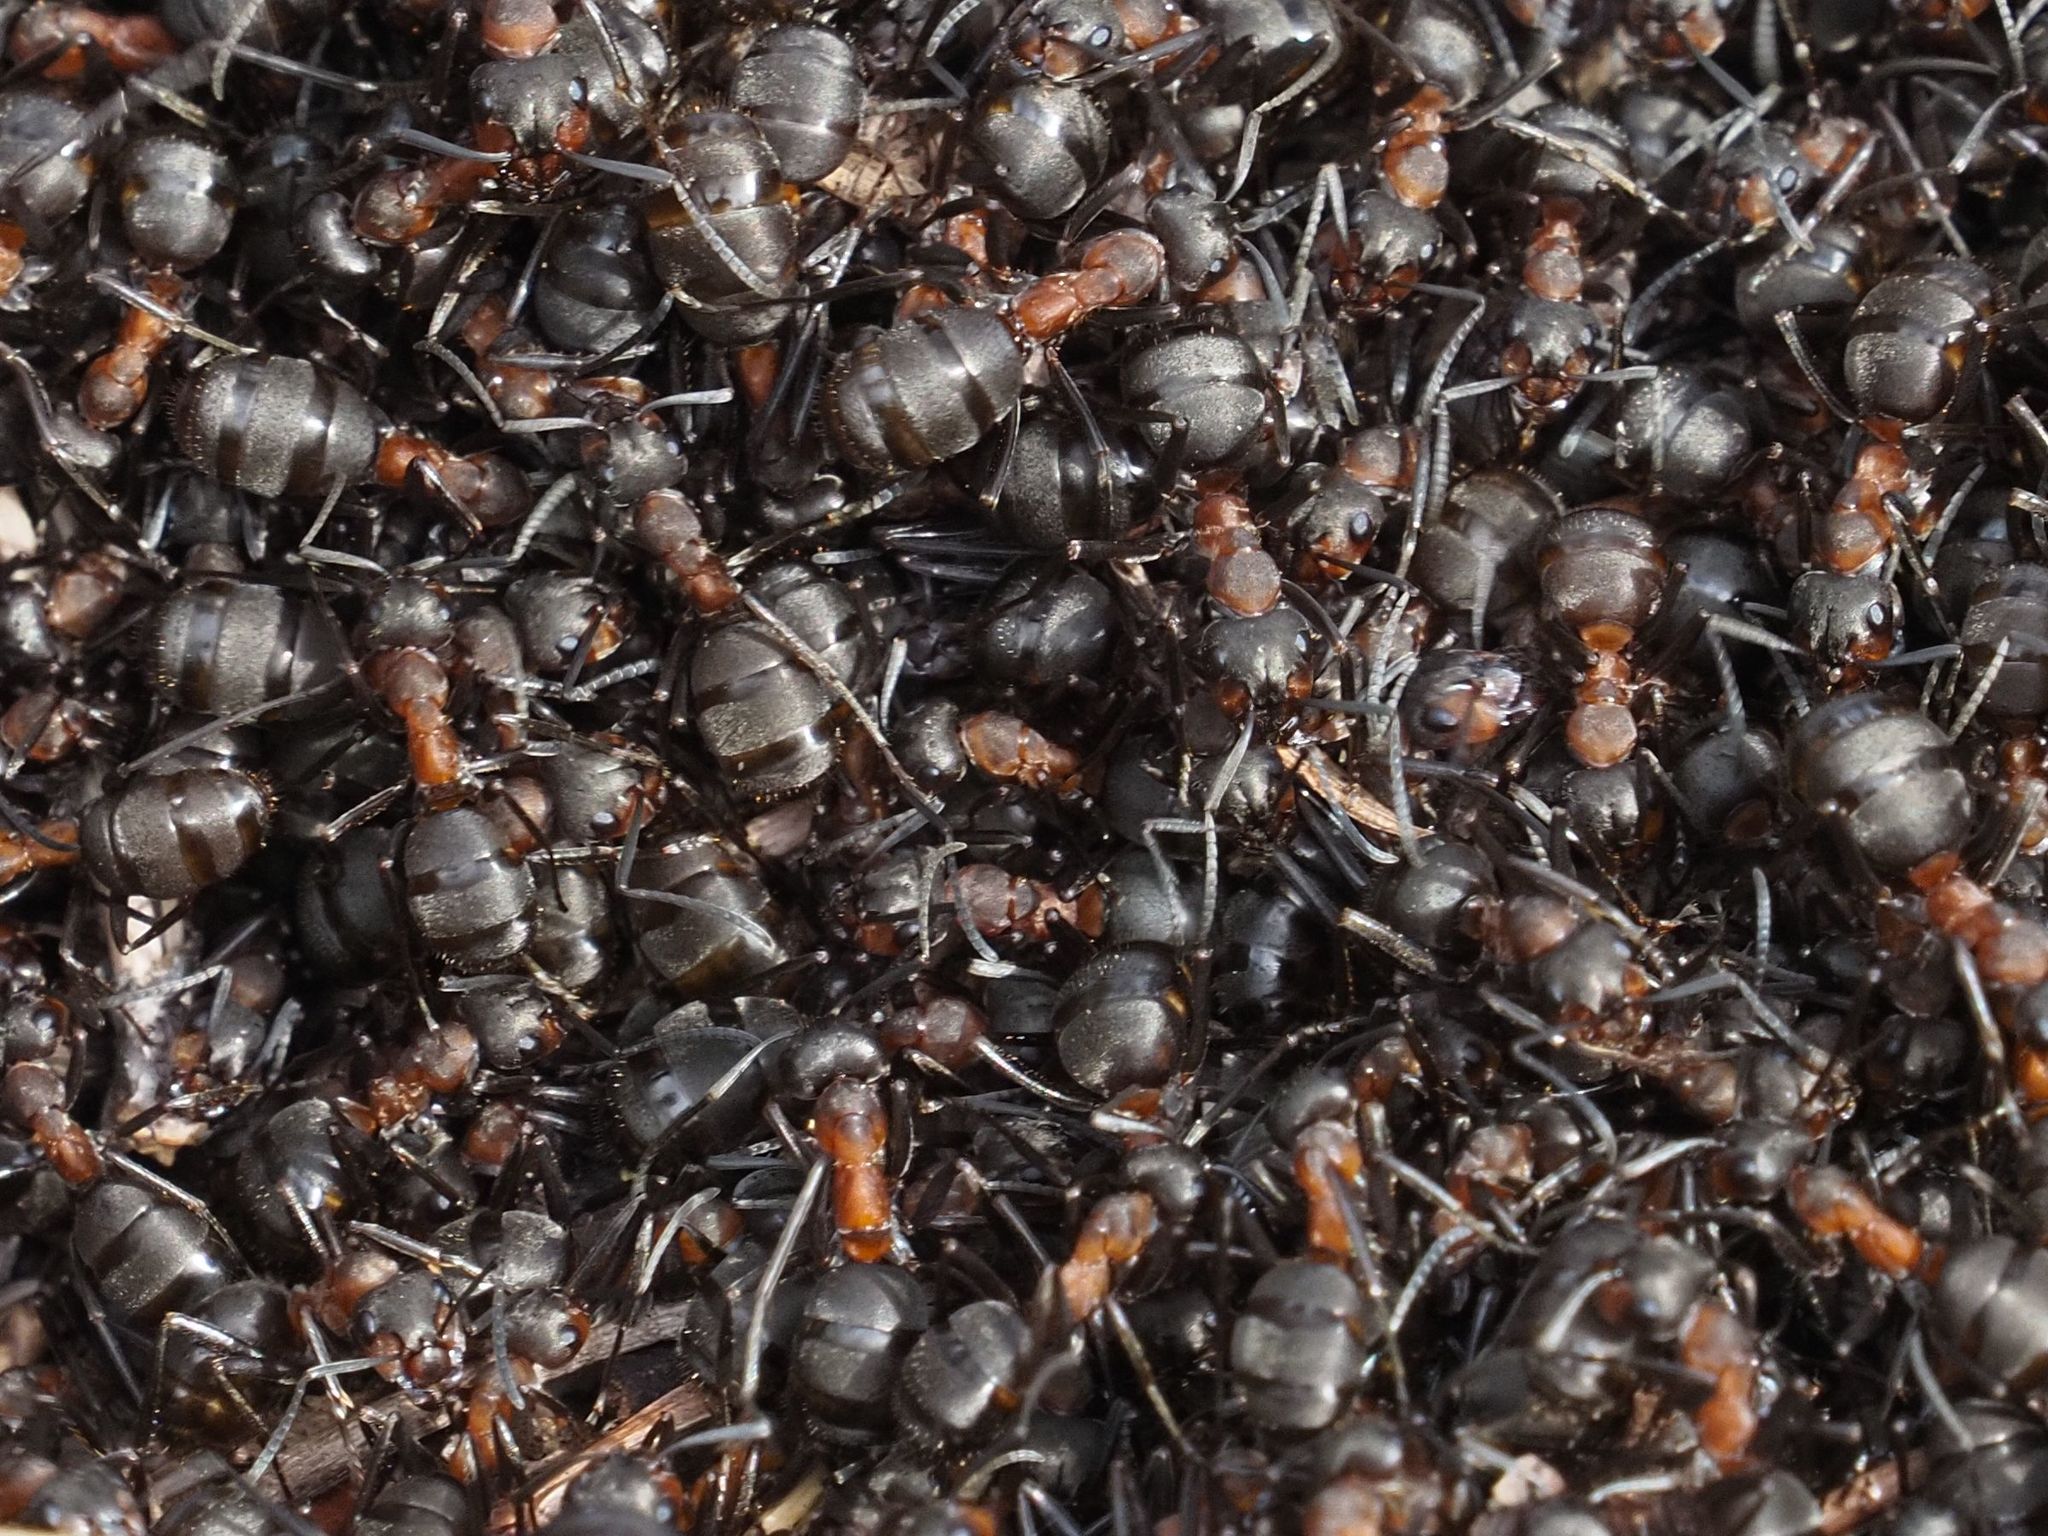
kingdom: Animalia
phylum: Arthropoda
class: Insecta
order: Hymenoptera
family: Formicidae
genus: Formica
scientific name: Formica
